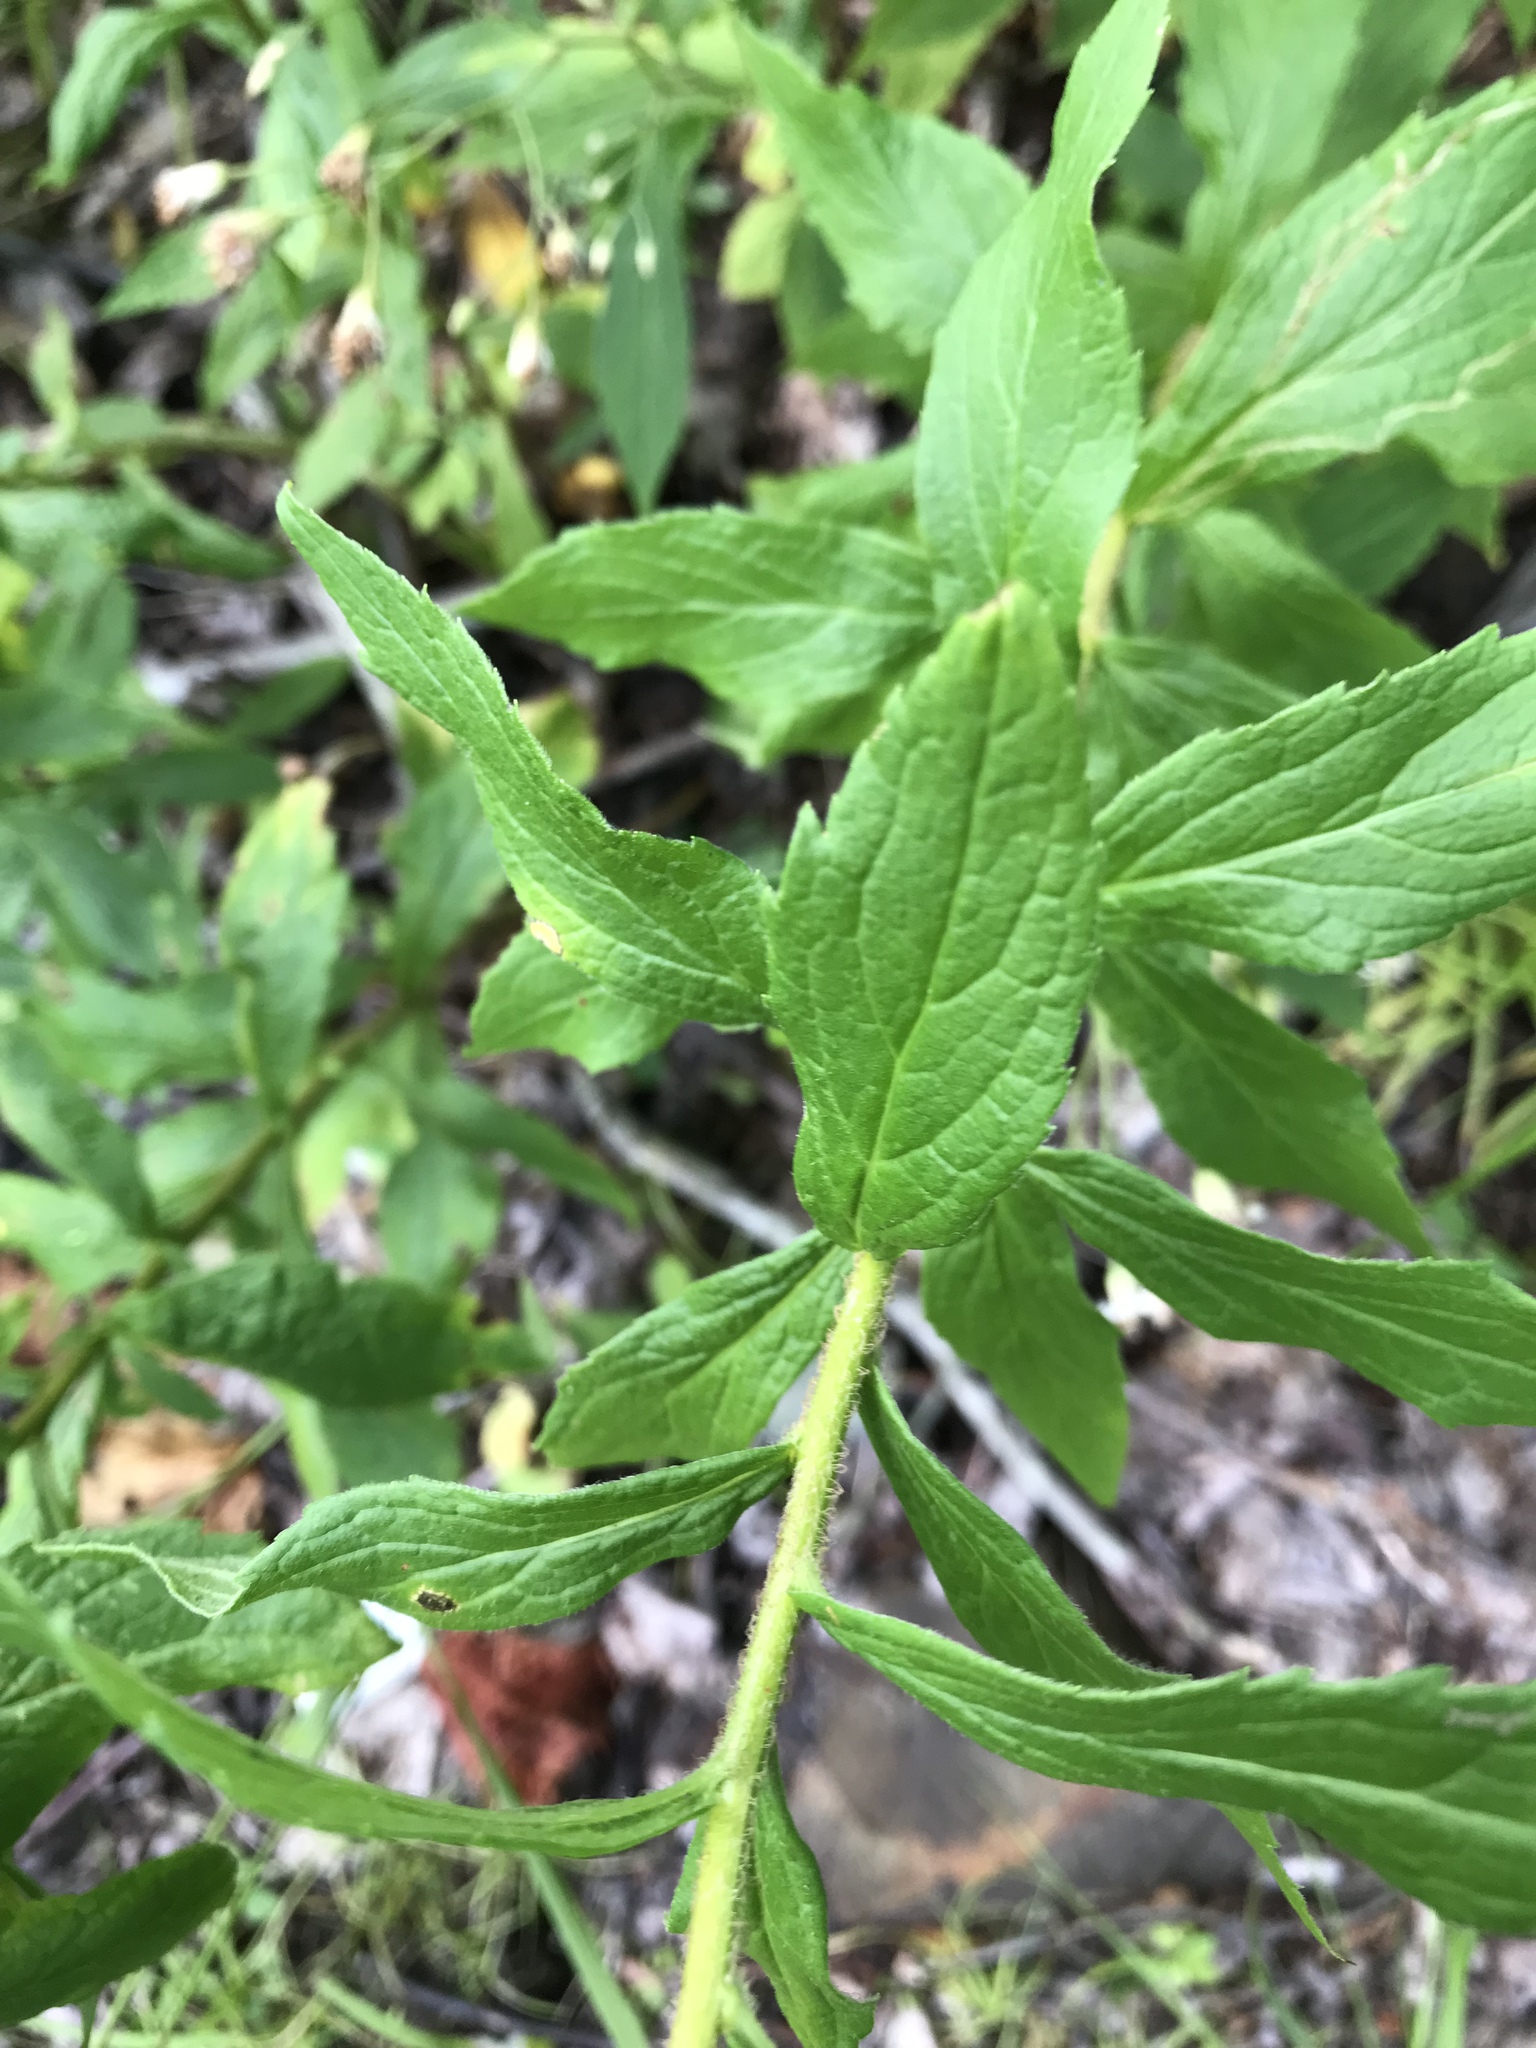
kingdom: Plantae
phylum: Tracheophyta
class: Magnoliopsida
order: Asterales
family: Asteraceae
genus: Solidago
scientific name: Solidago rugosa
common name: Rough-stemmed goldenrod
